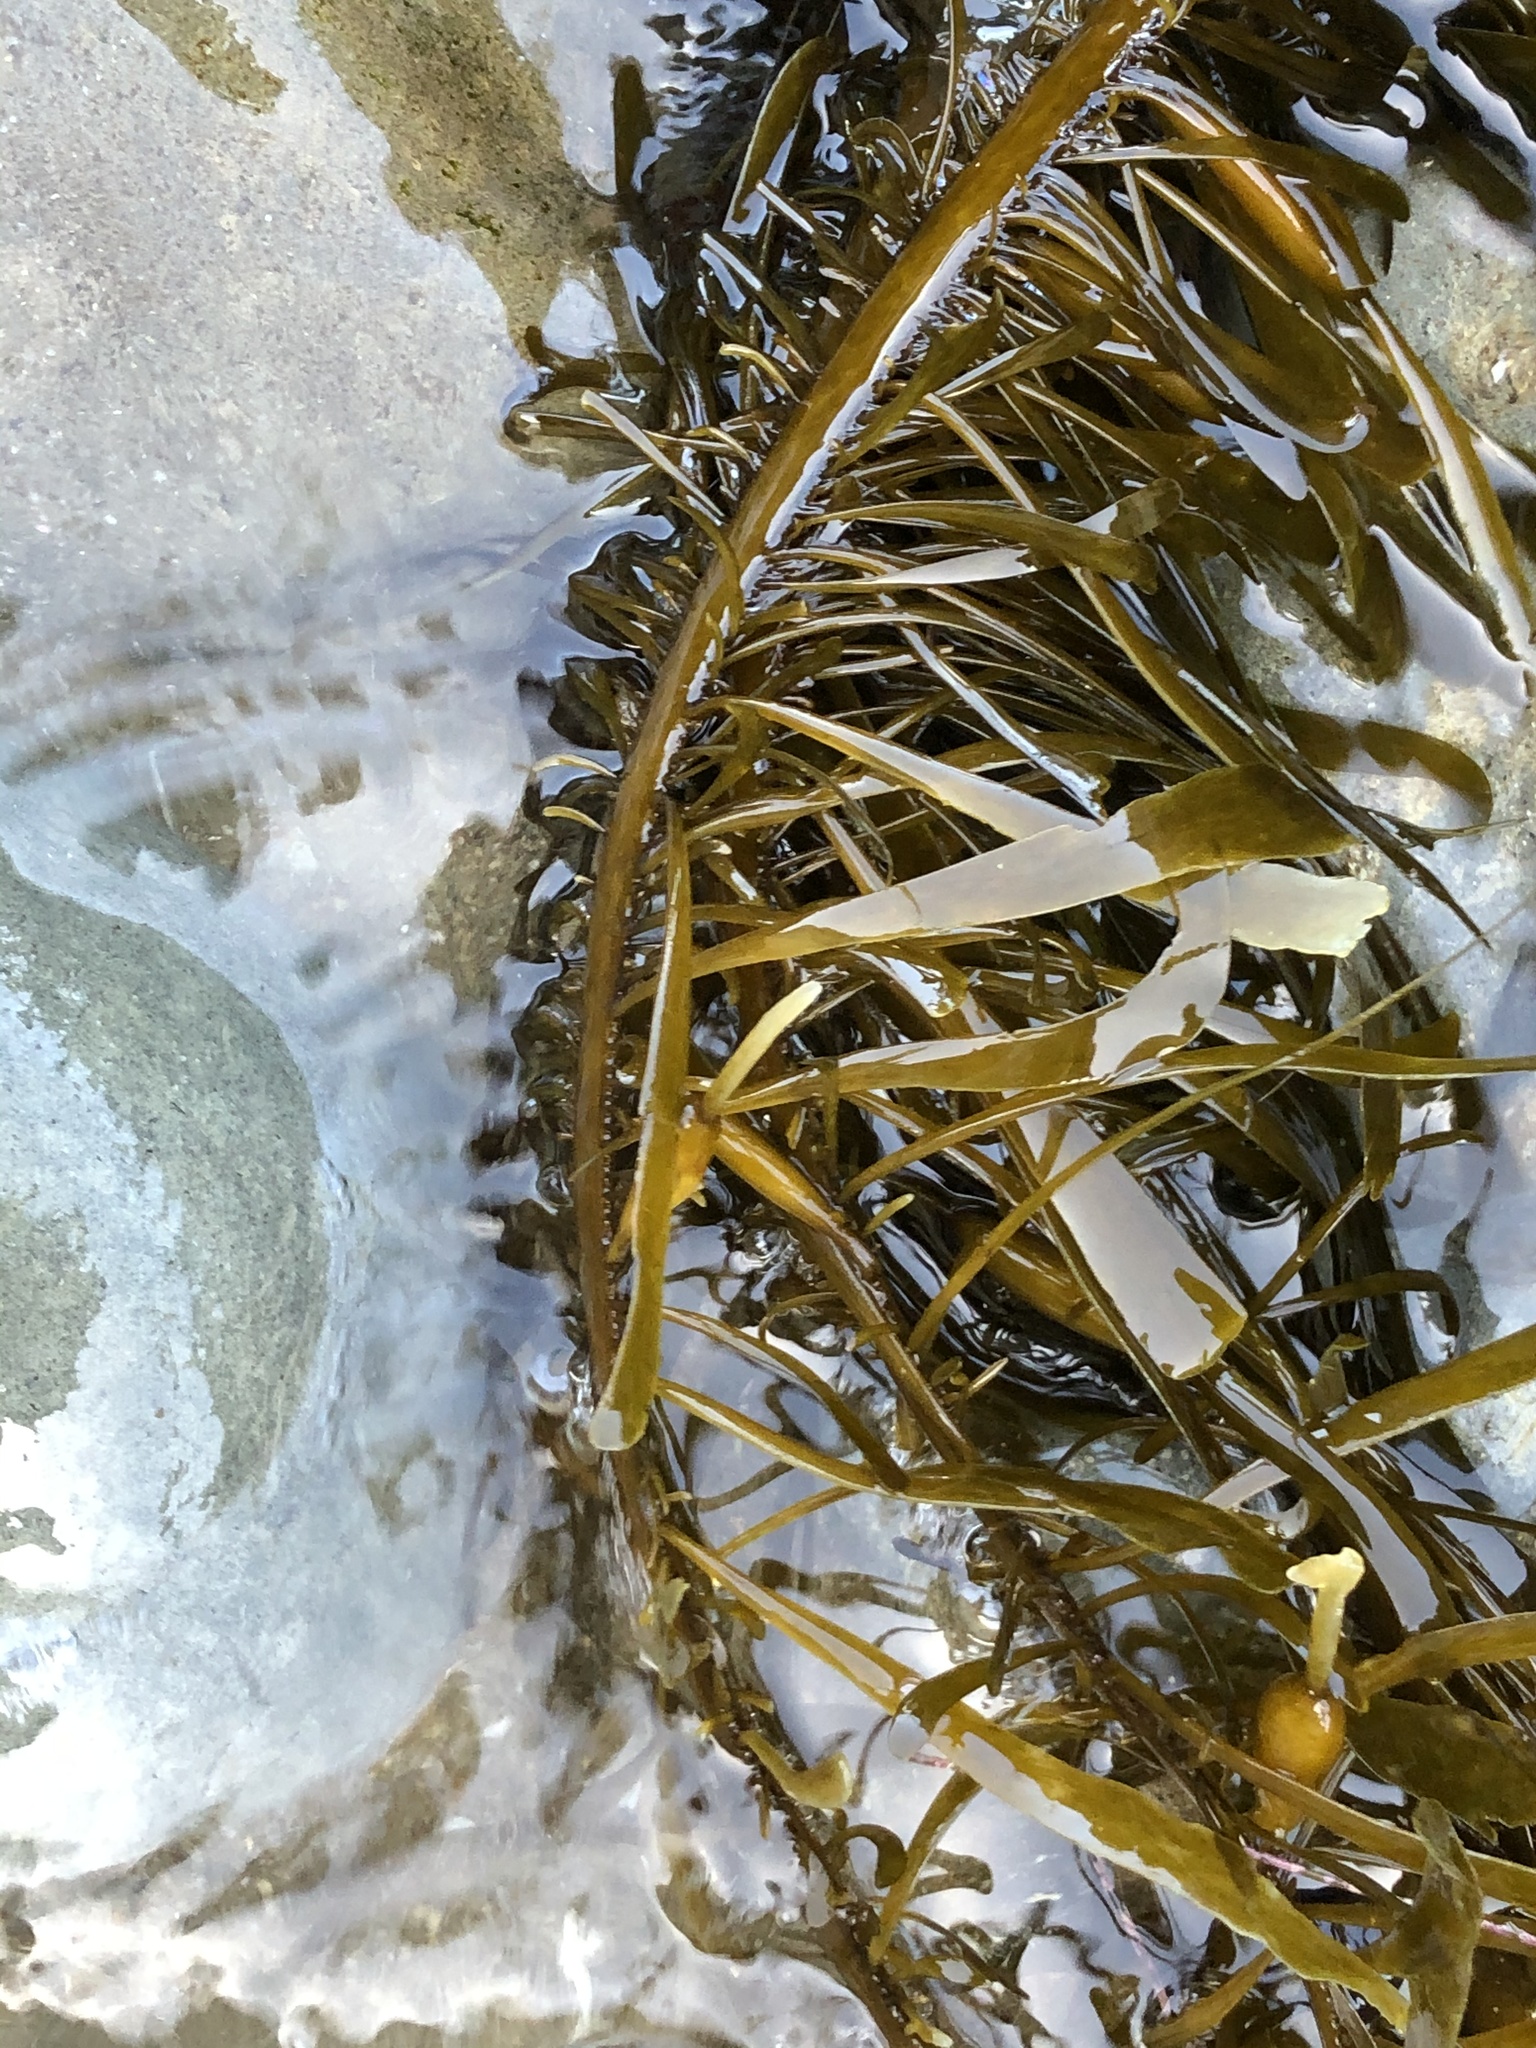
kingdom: Chromista
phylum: Ochrophyta
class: Phaeophyceae
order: Laminariales
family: Lessoniaceae
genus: Egregia
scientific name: Egregia menziesii
